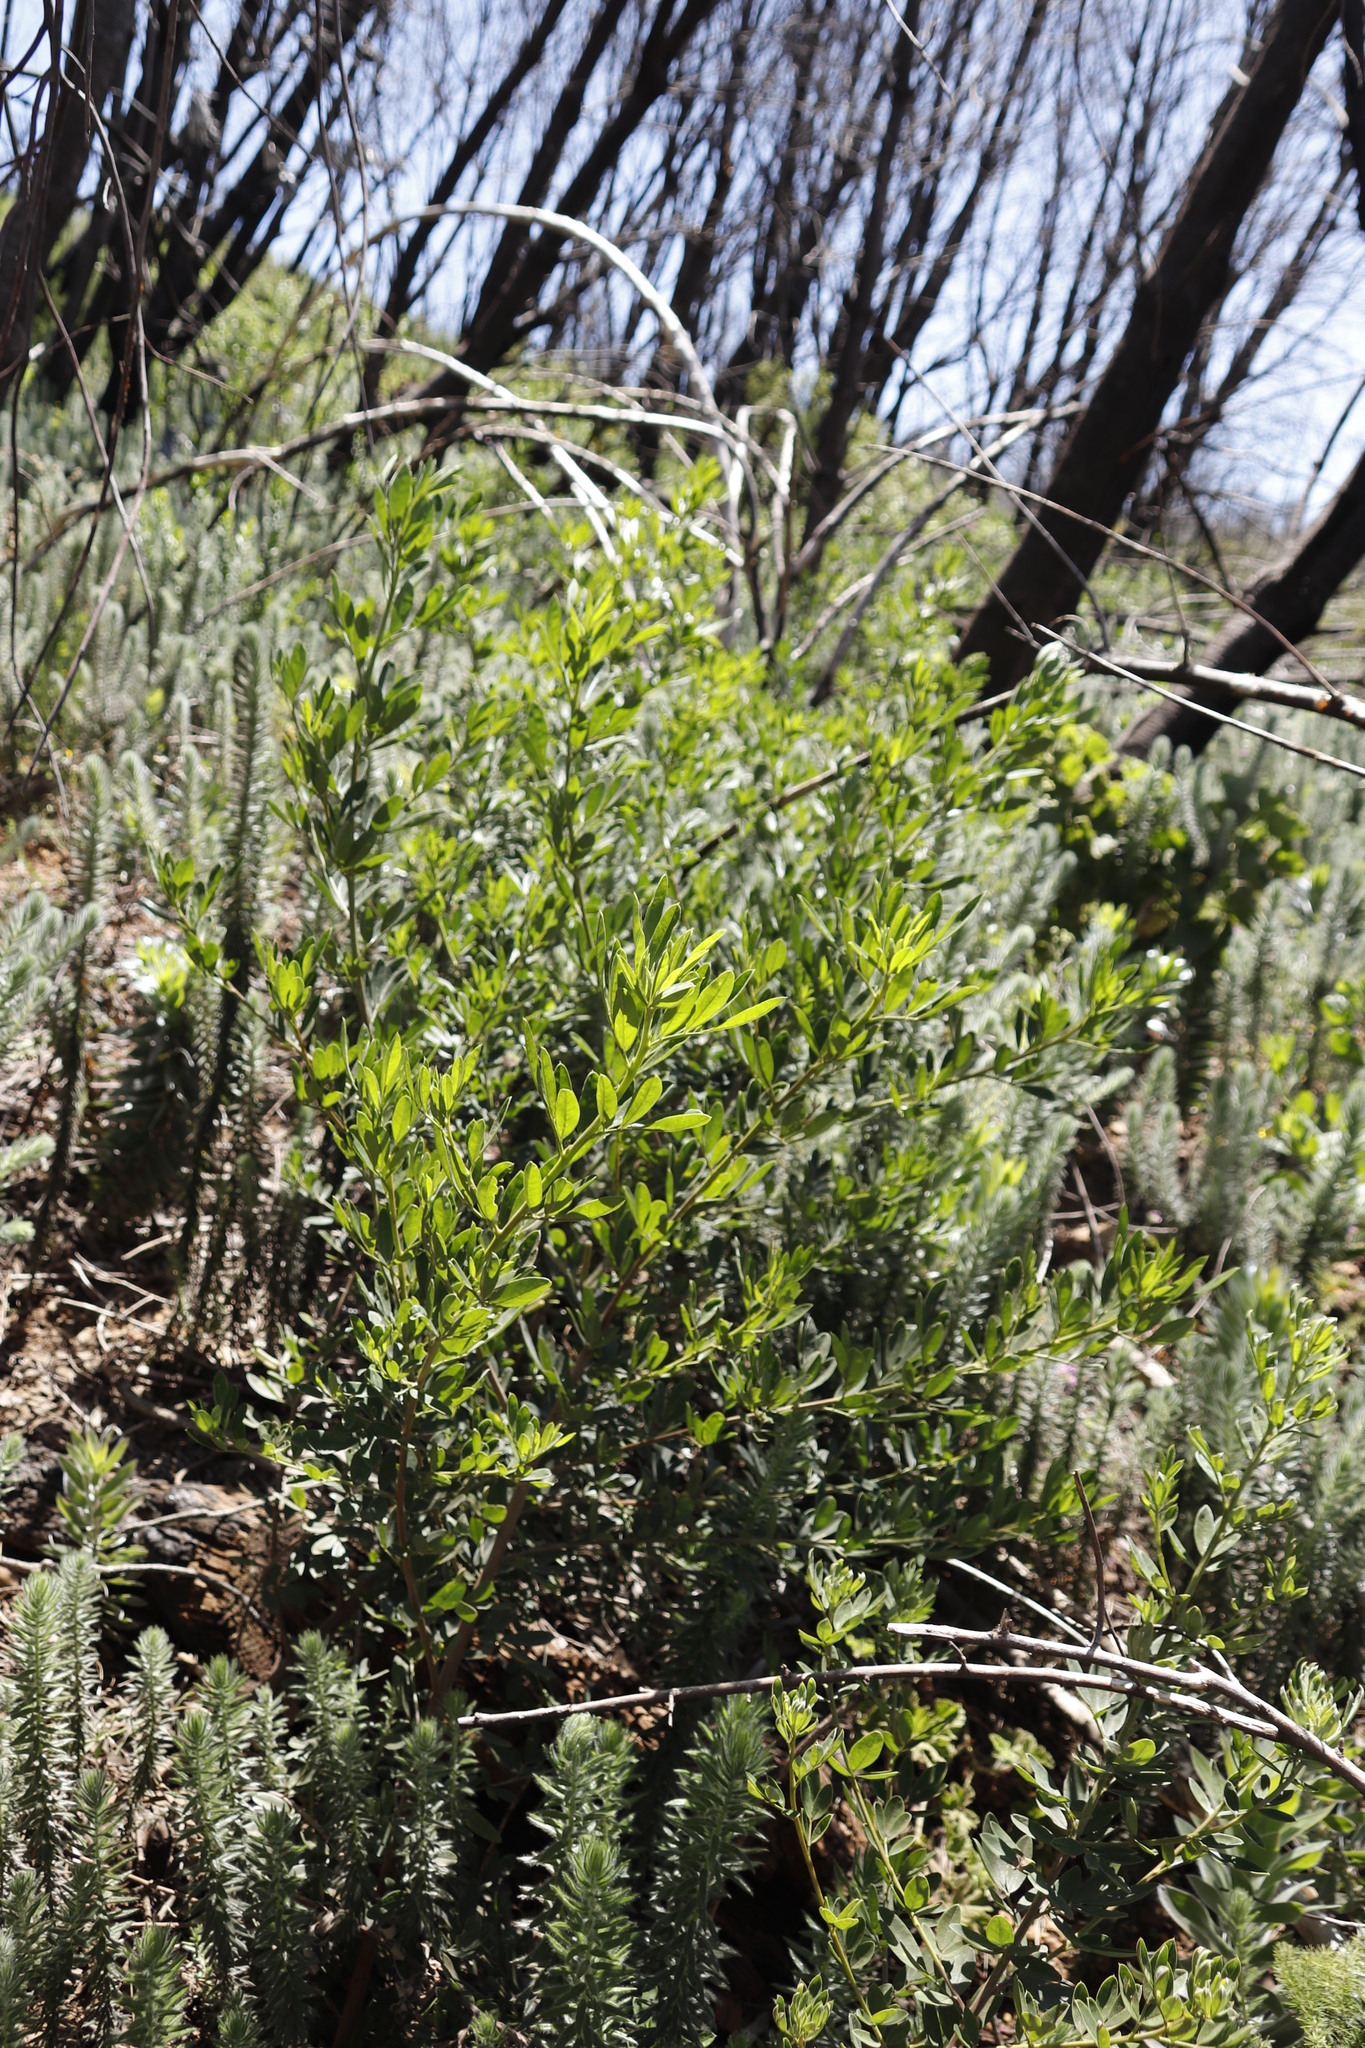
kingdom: Plantae
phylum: Tracheophyta
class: Magnoliopsida
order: Fabales
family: Fabaceae
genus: Indigofera
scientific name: Indigofera cytisoides
